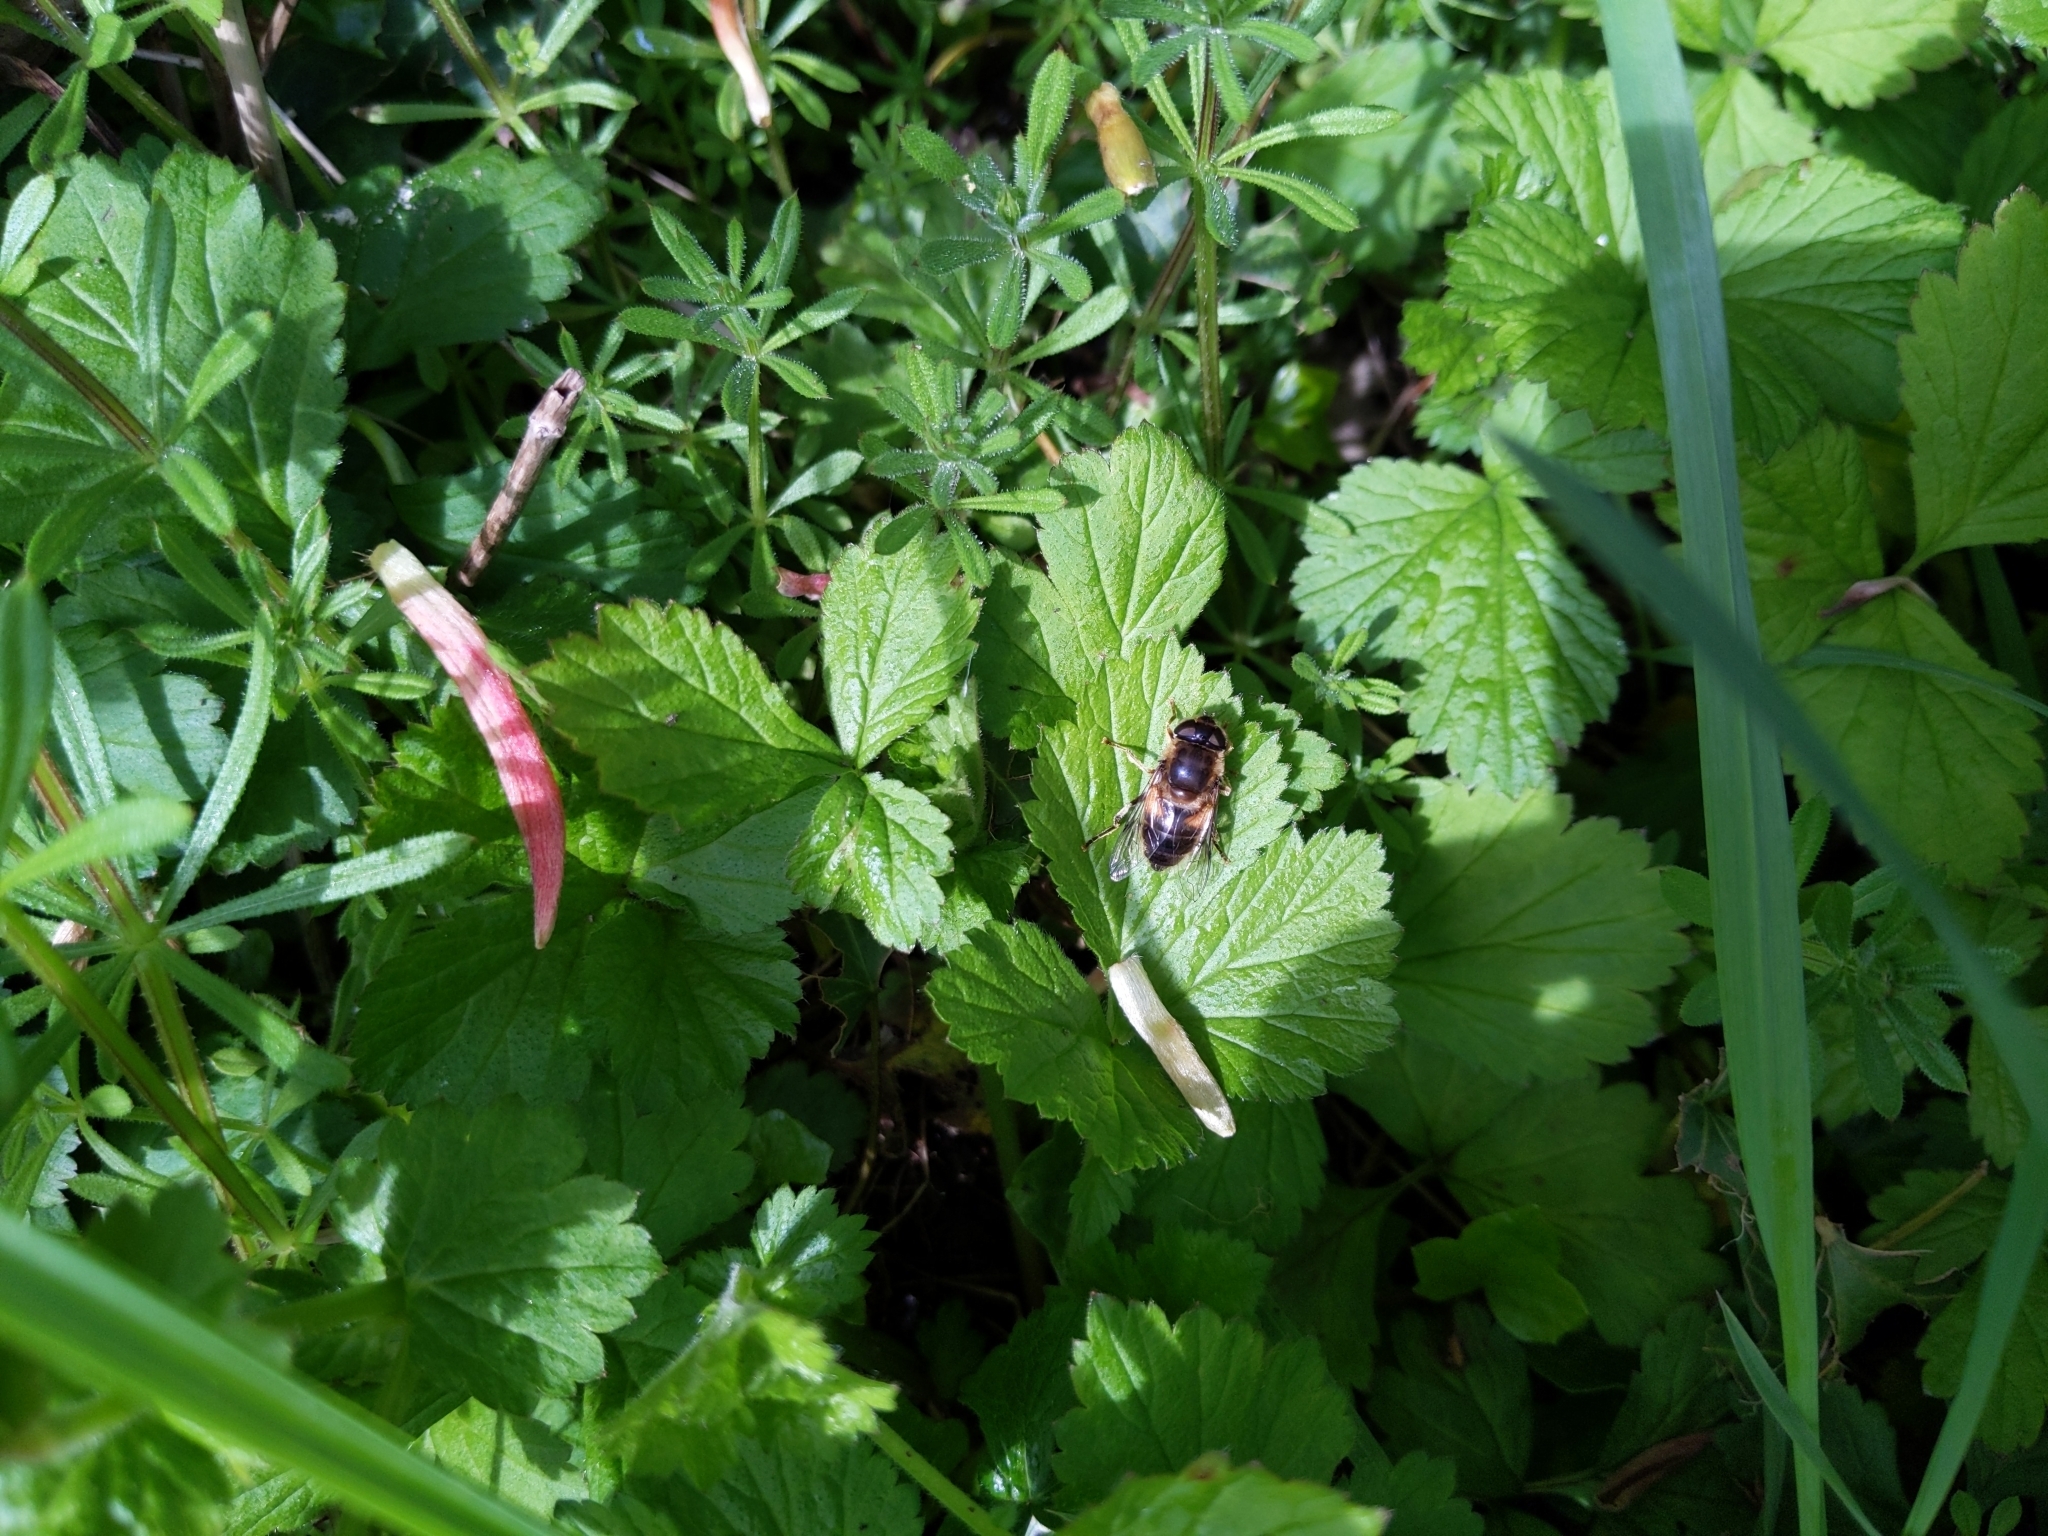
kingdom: Animalia
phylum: Arthropoda
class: Insecta
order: Diptera
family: Syrphidae
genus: Eristalis
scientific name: Eristalis pertinax
